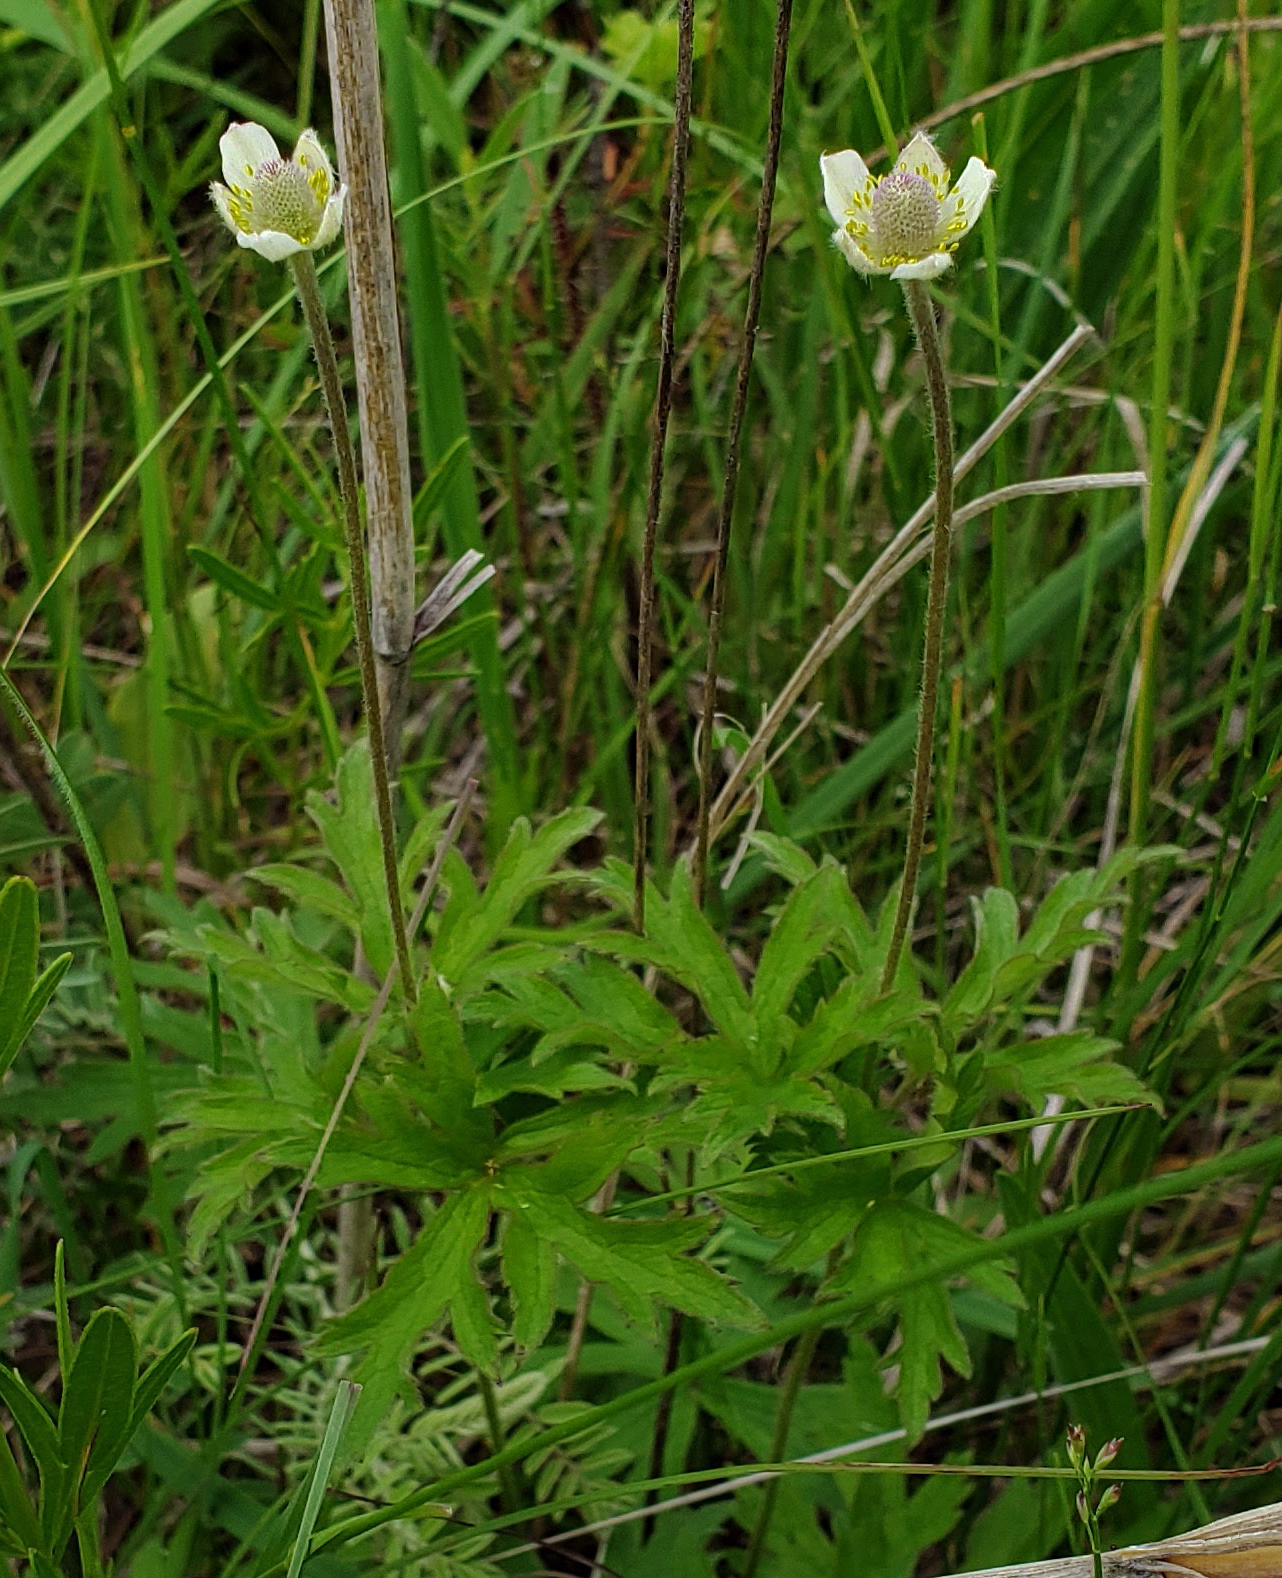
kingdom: Plantae
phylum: Tracheophyta
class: Magnoliopsida
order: Ranunculales
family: Ranunculaceae
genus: Anemone
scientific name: Anemone cylindrica
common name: Candle anemone
